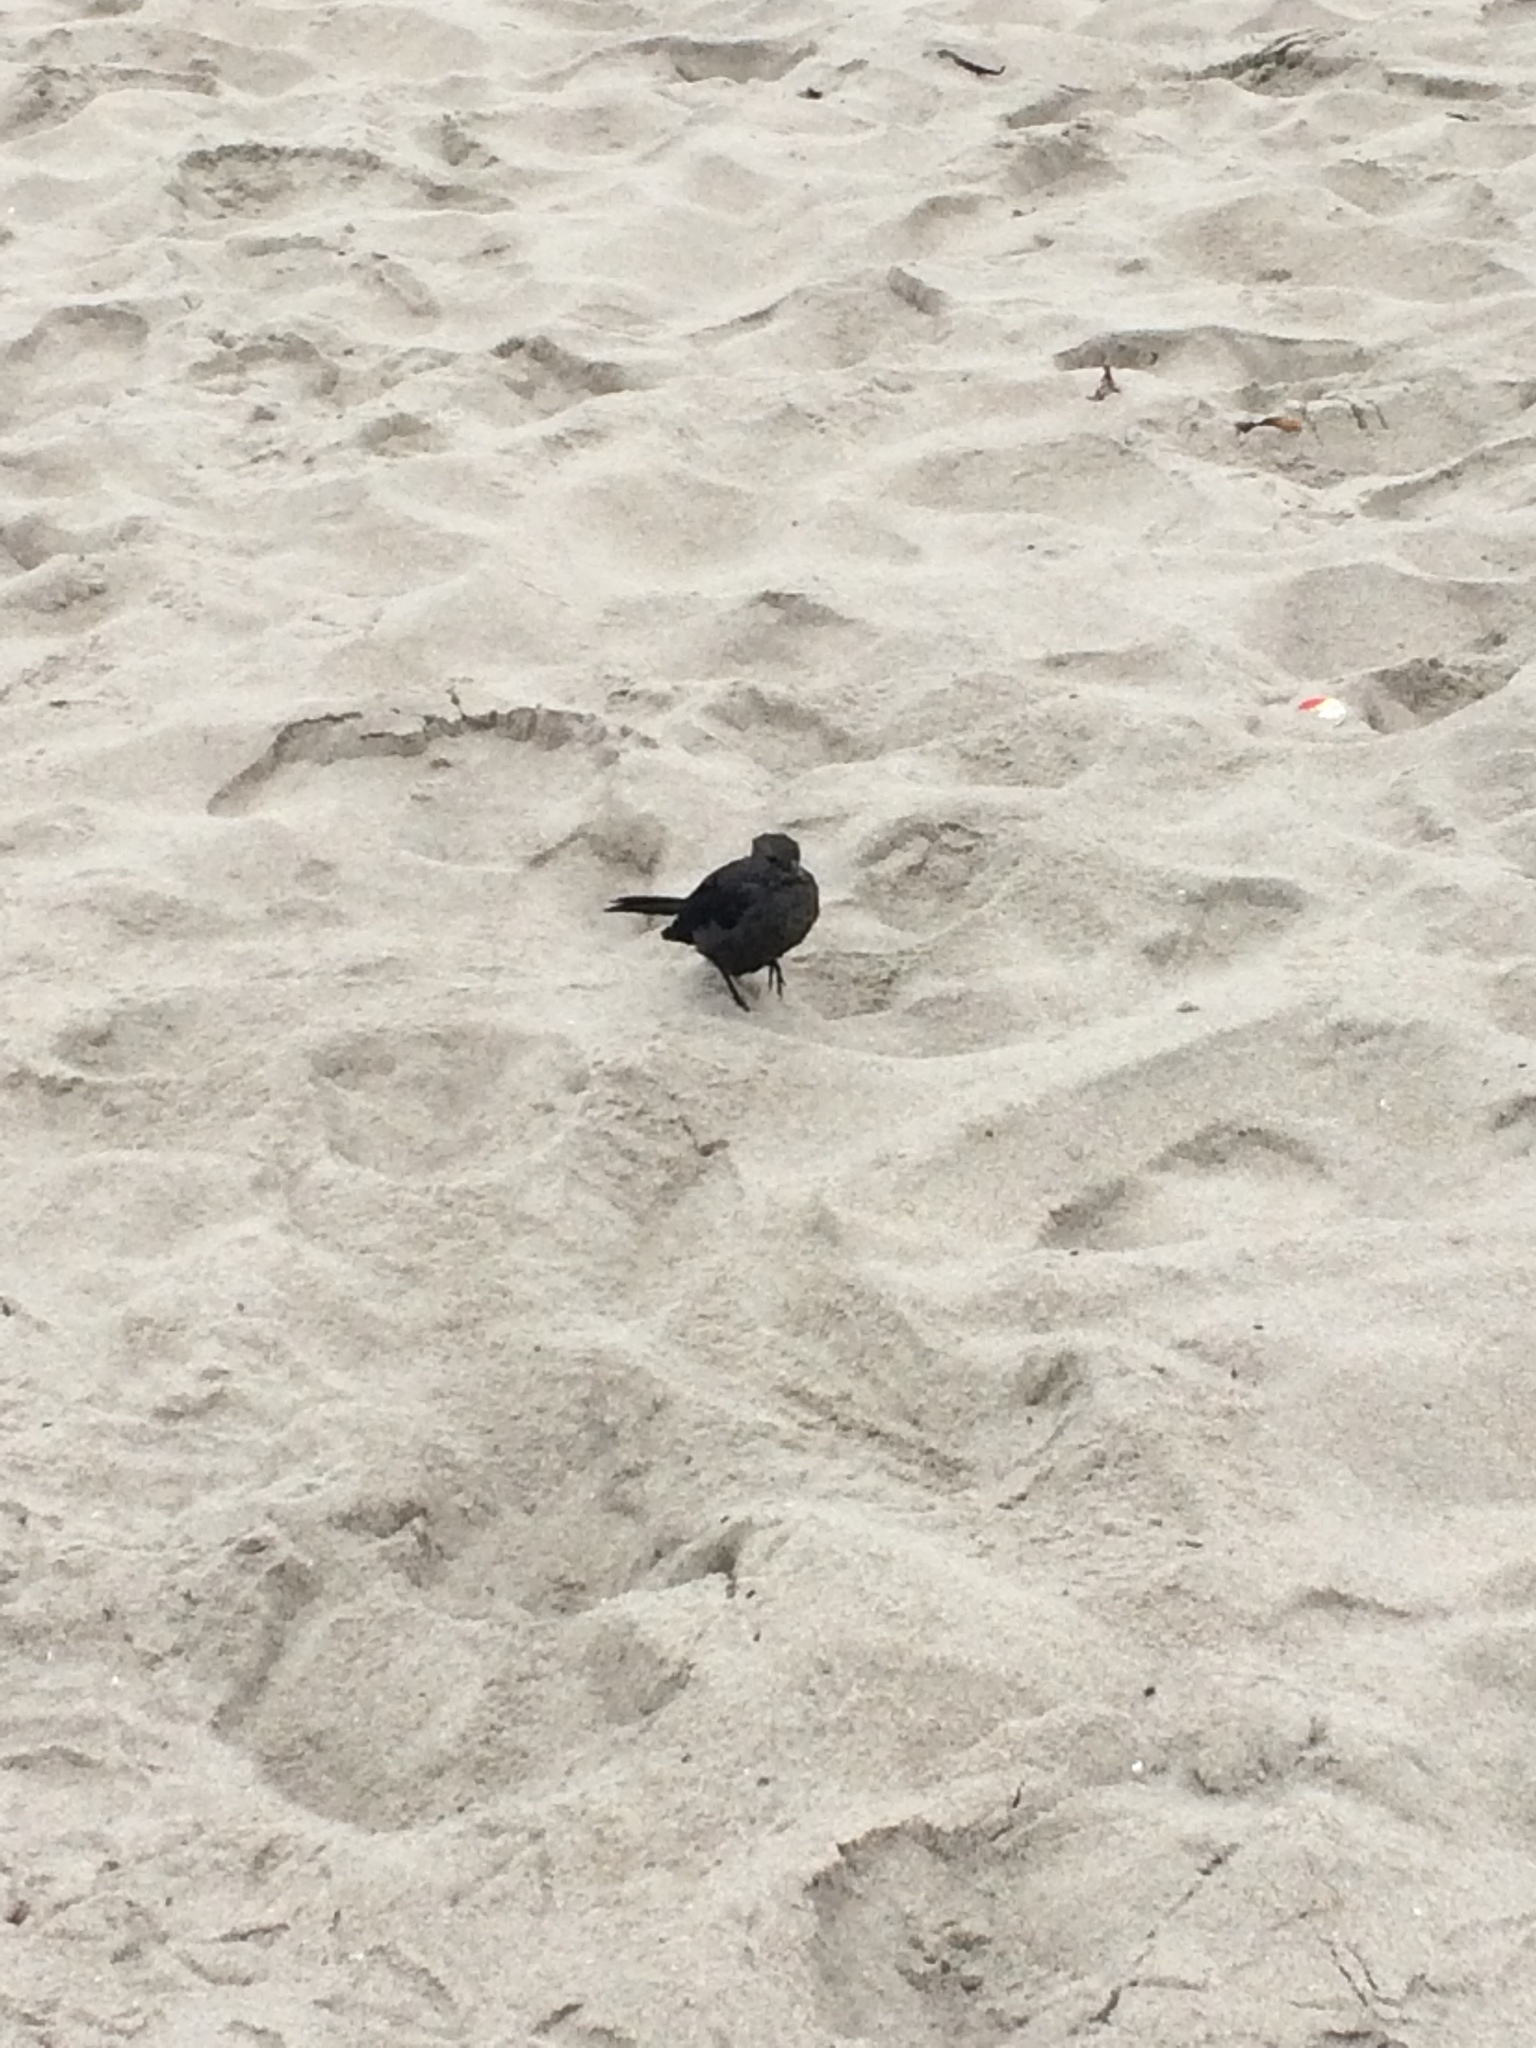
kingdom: Animalia
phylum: Chordata
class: Aves
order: Passeriformes
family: Icteridae
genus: Euphagus
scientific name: Euphagus cyanocephalus
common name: Brewer's blackbird
